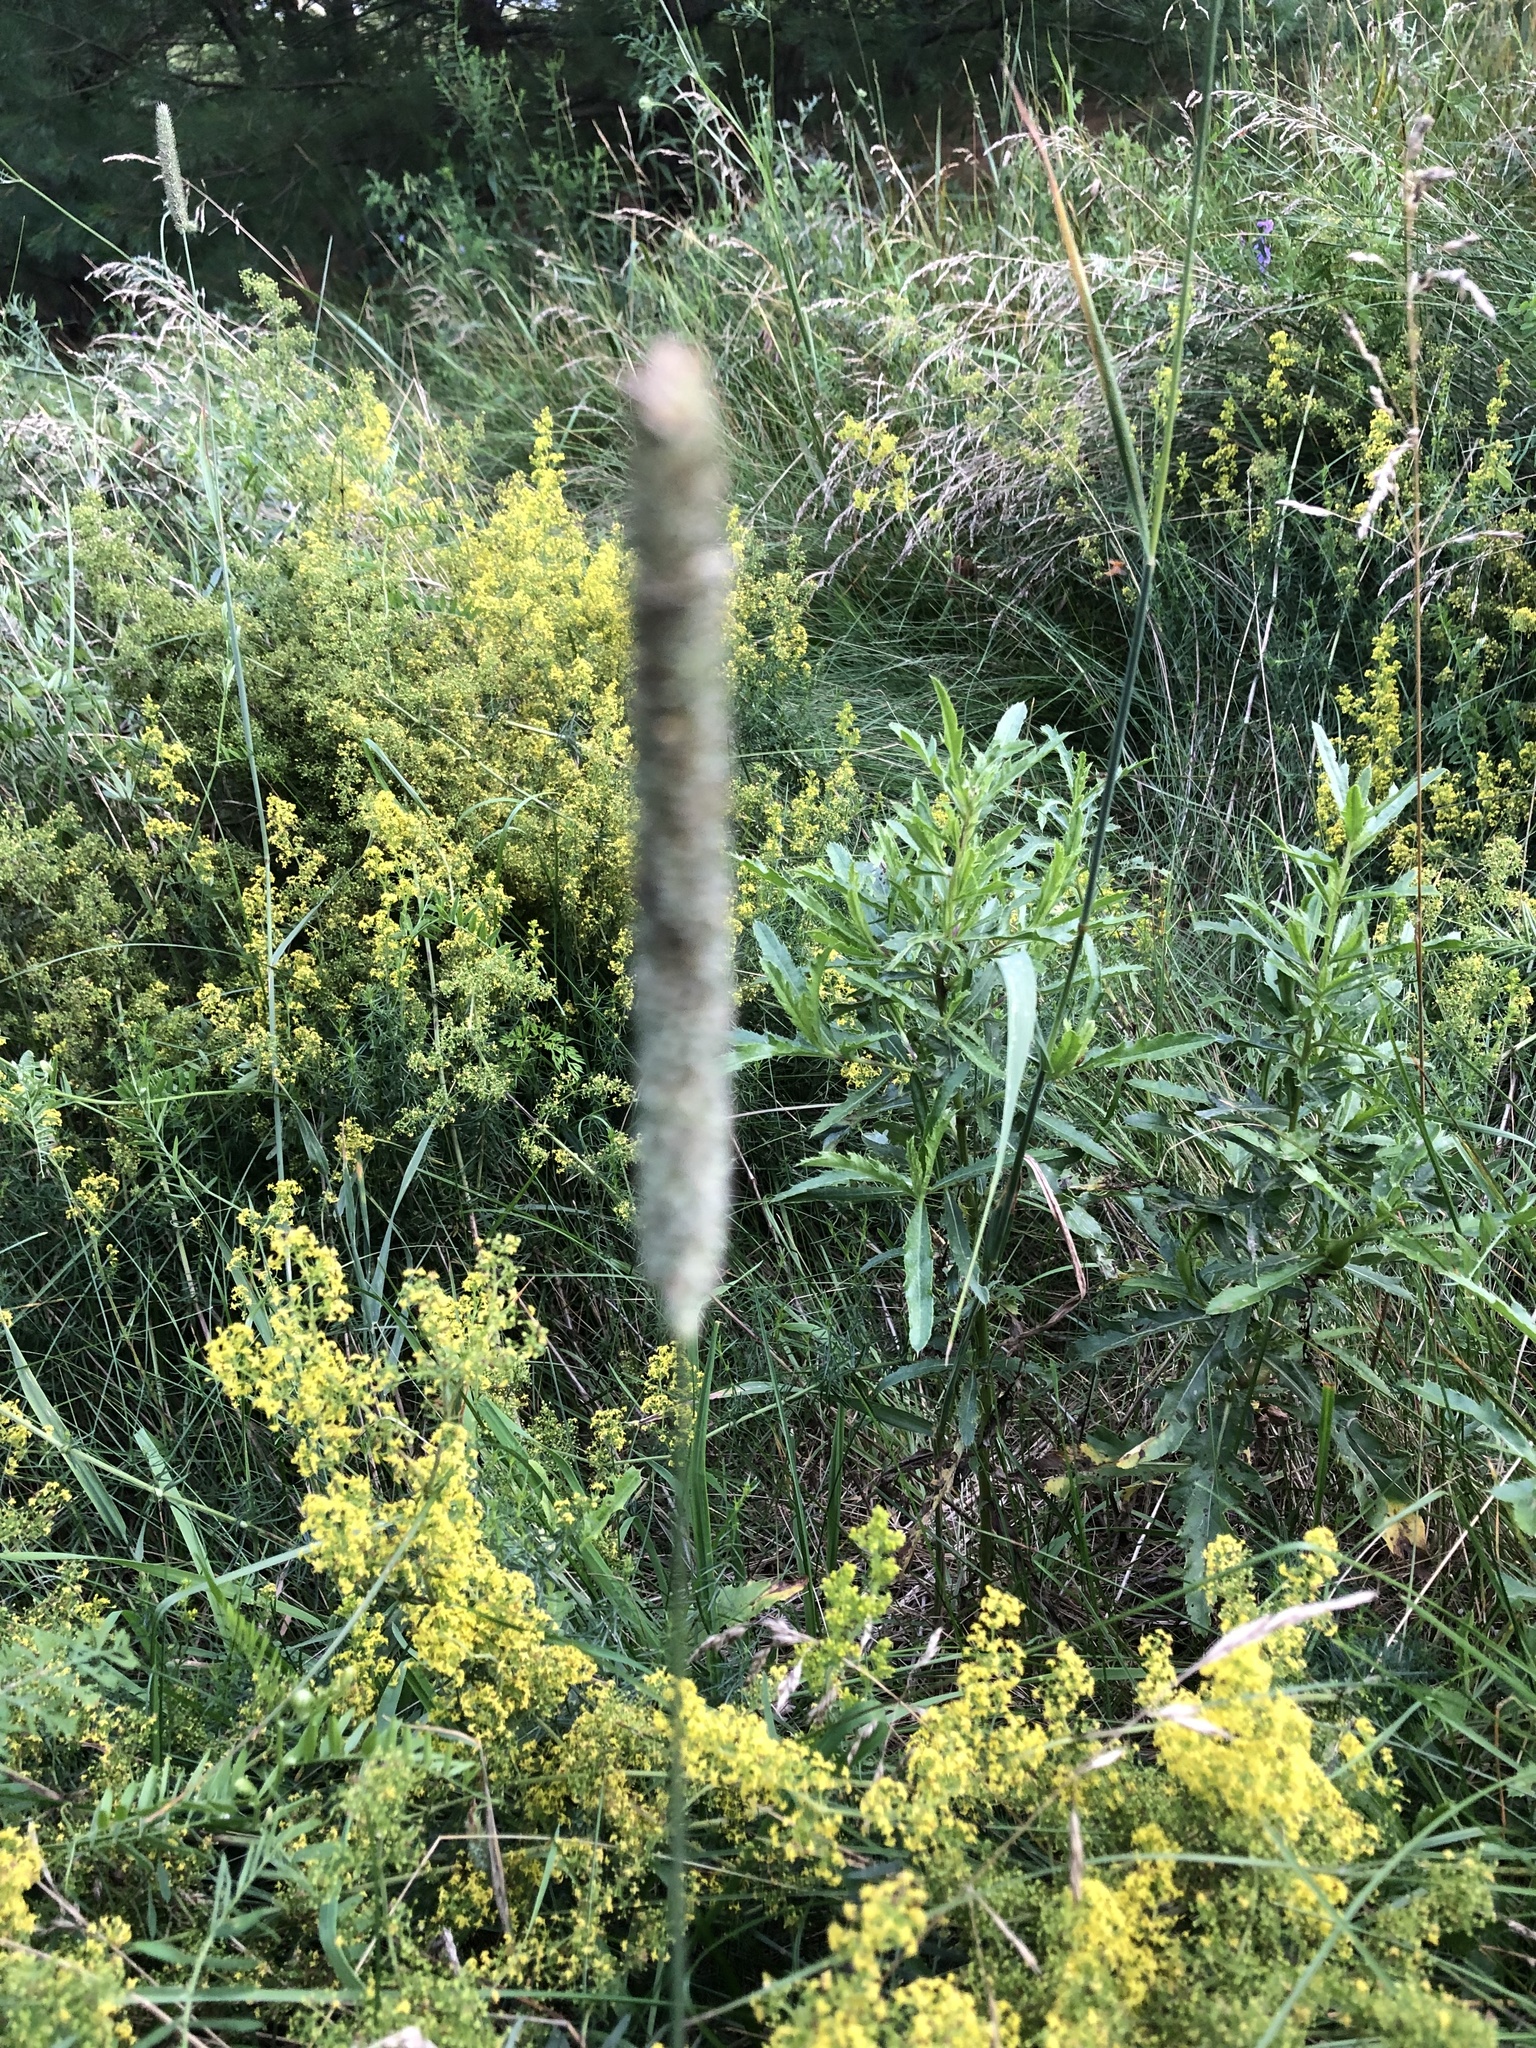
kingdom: Plantae
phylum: Tracheophyta
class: Liliopsida
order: Poales
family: Poaceae
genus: Phleum
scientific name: Phleum pratense
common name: Timothy grass
